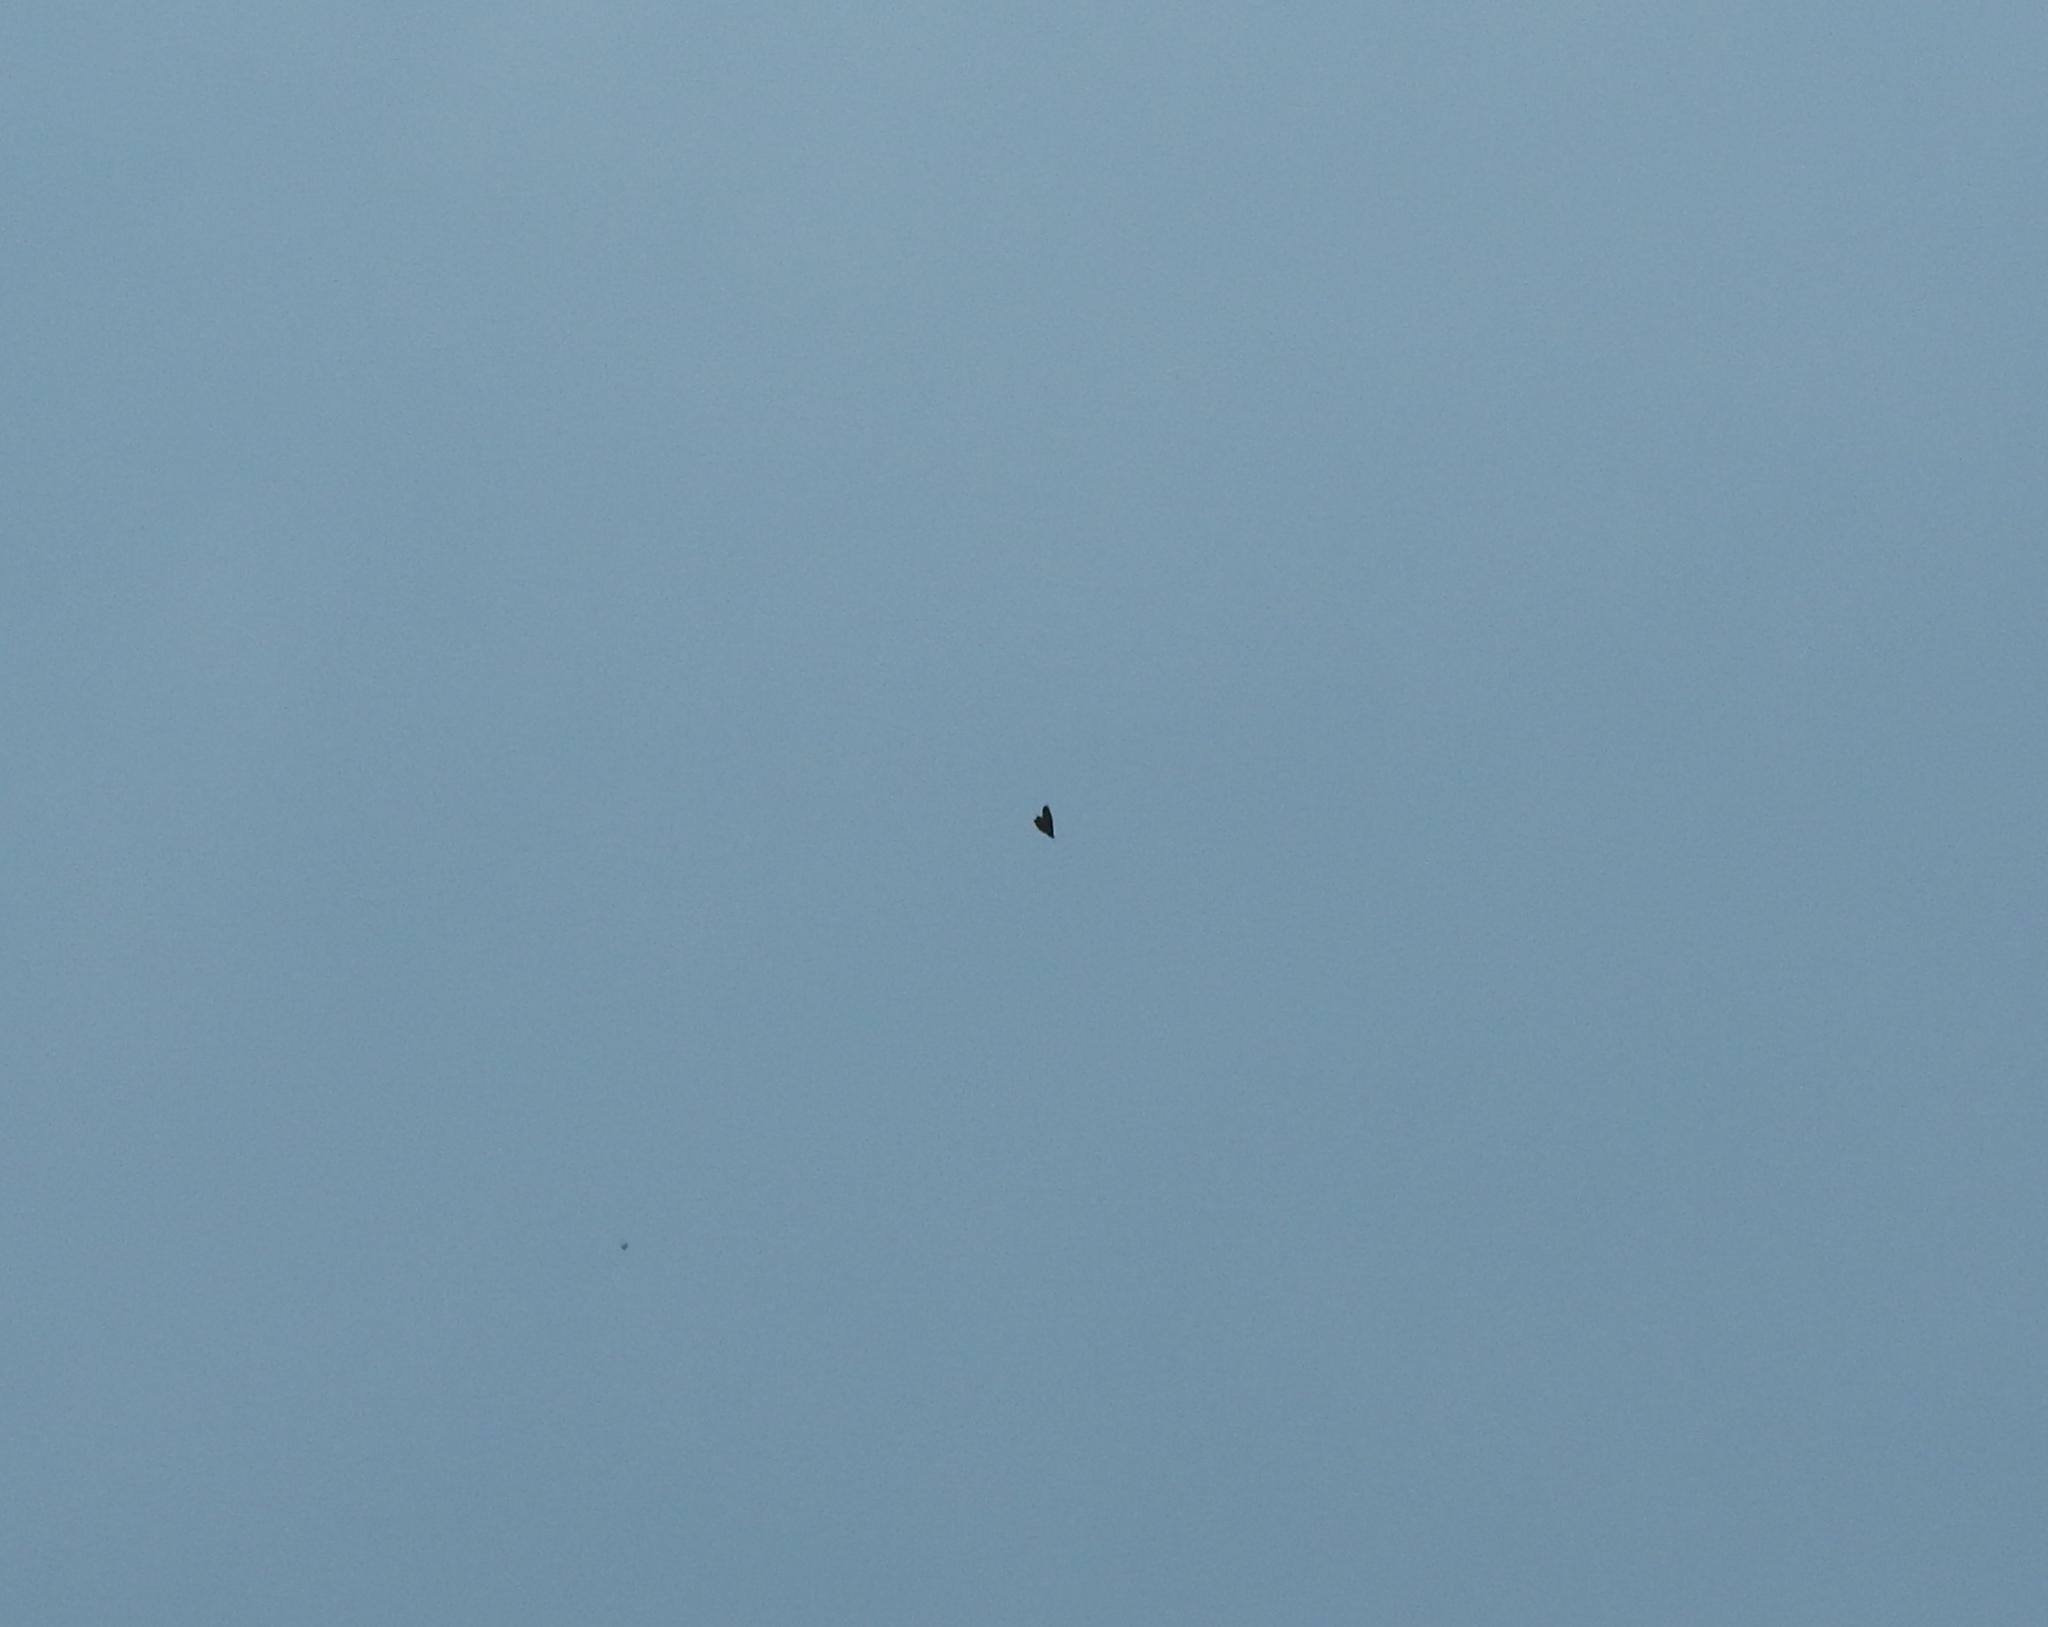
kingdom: Animalia
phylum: Arthropoda
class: Insecta
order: Lepidoptera
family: Nymphalidae
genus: Danaus
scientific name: Danaus plexippus
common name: Monarch
